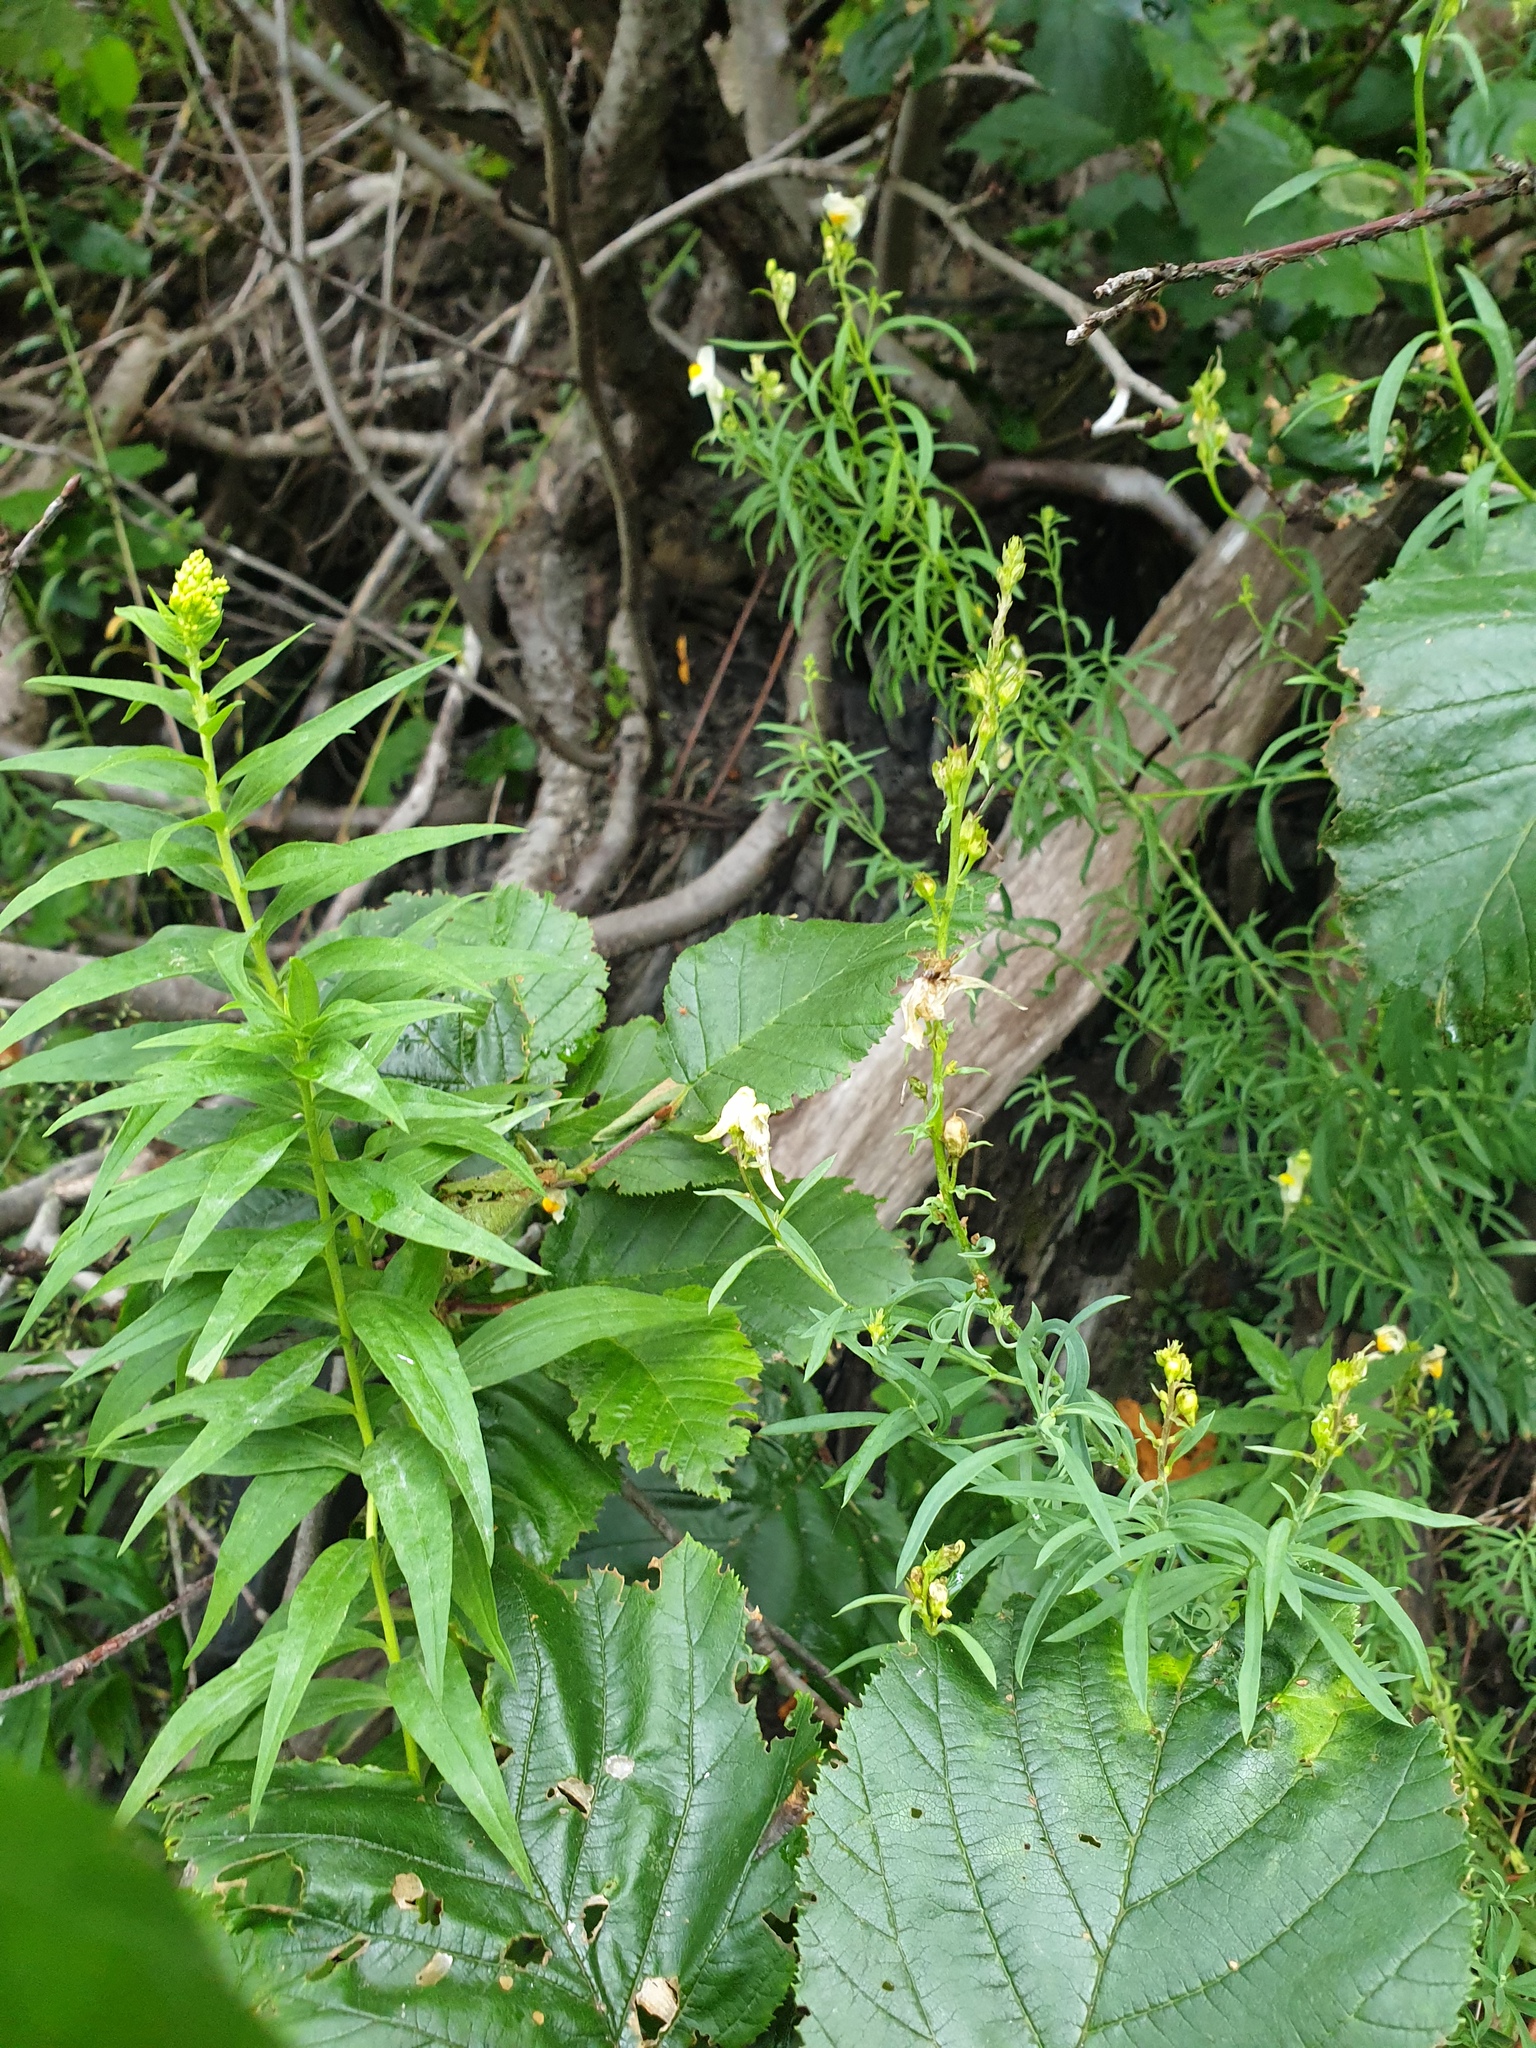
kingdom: Plantae
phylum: Tracheophyta
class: Magnoliopsida
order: Lamiales
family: Plantaginaceae
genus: Linaria
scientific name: Linaria vulgaris
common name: Butter and eggs
